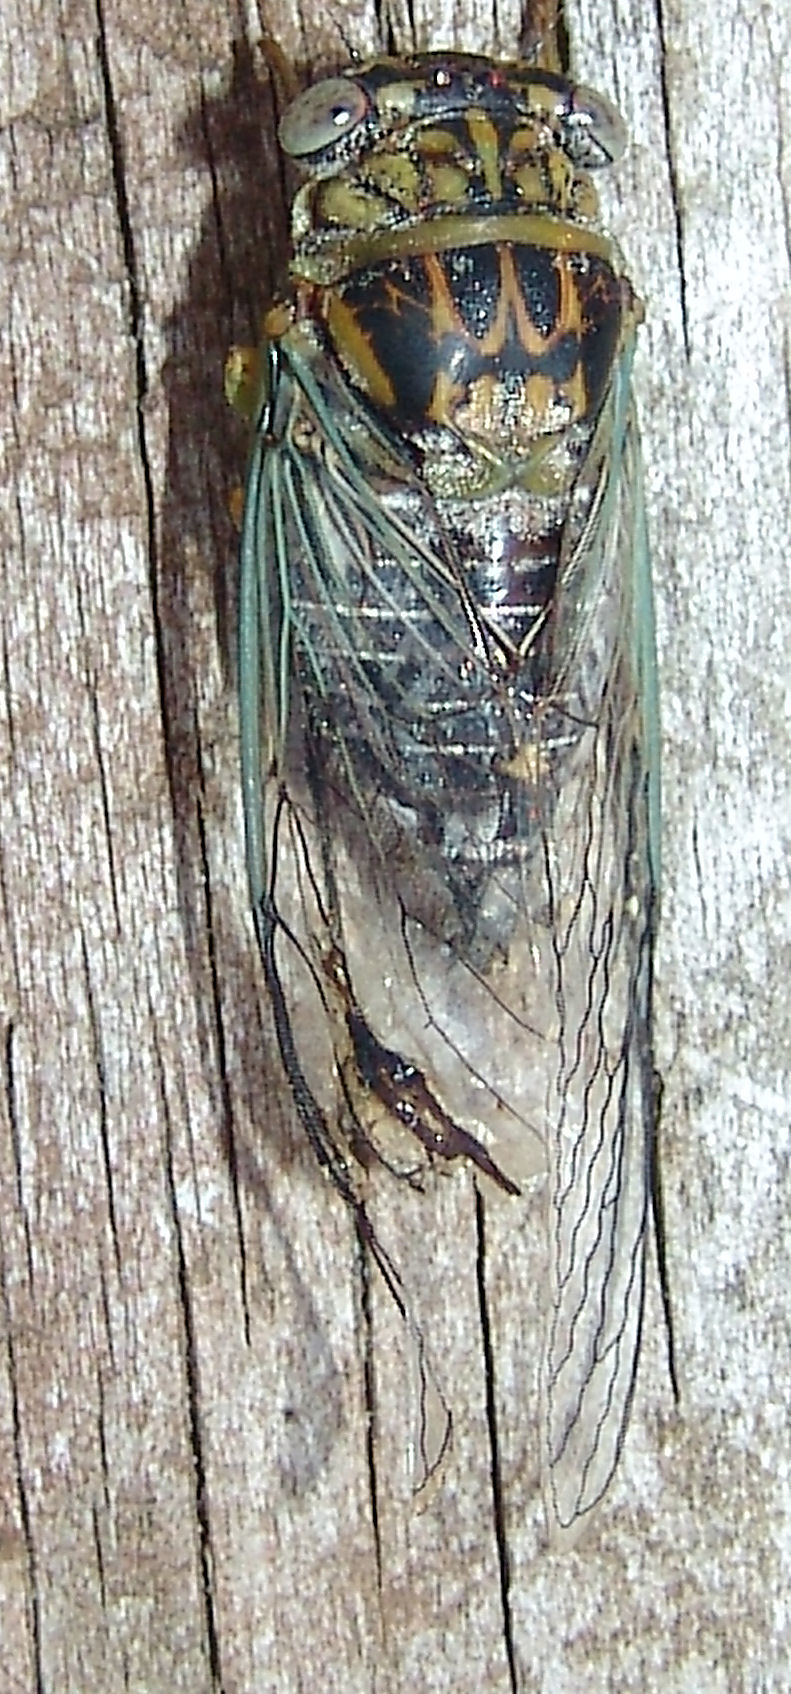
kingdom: Animalia
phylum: Arthropoda
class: Insecta
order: Hemiptera
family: Cicadidae
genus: Diceroprocta
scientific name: Diceroprocta vitripennis
